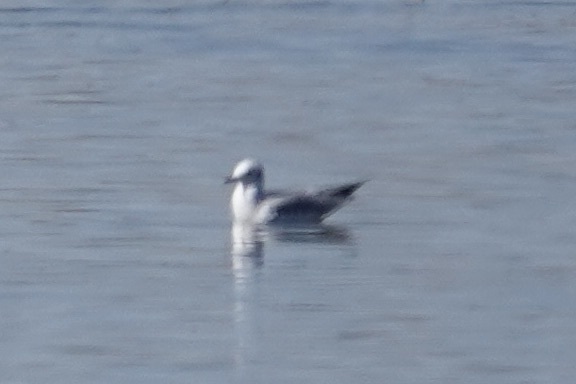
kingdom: Animalia
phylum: Chordata
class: Aves
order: Charadriiformes
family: Laridae
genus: Chroicocephalus
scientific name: Chroicocephalus philadelphia
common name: Bonaparte's gull
